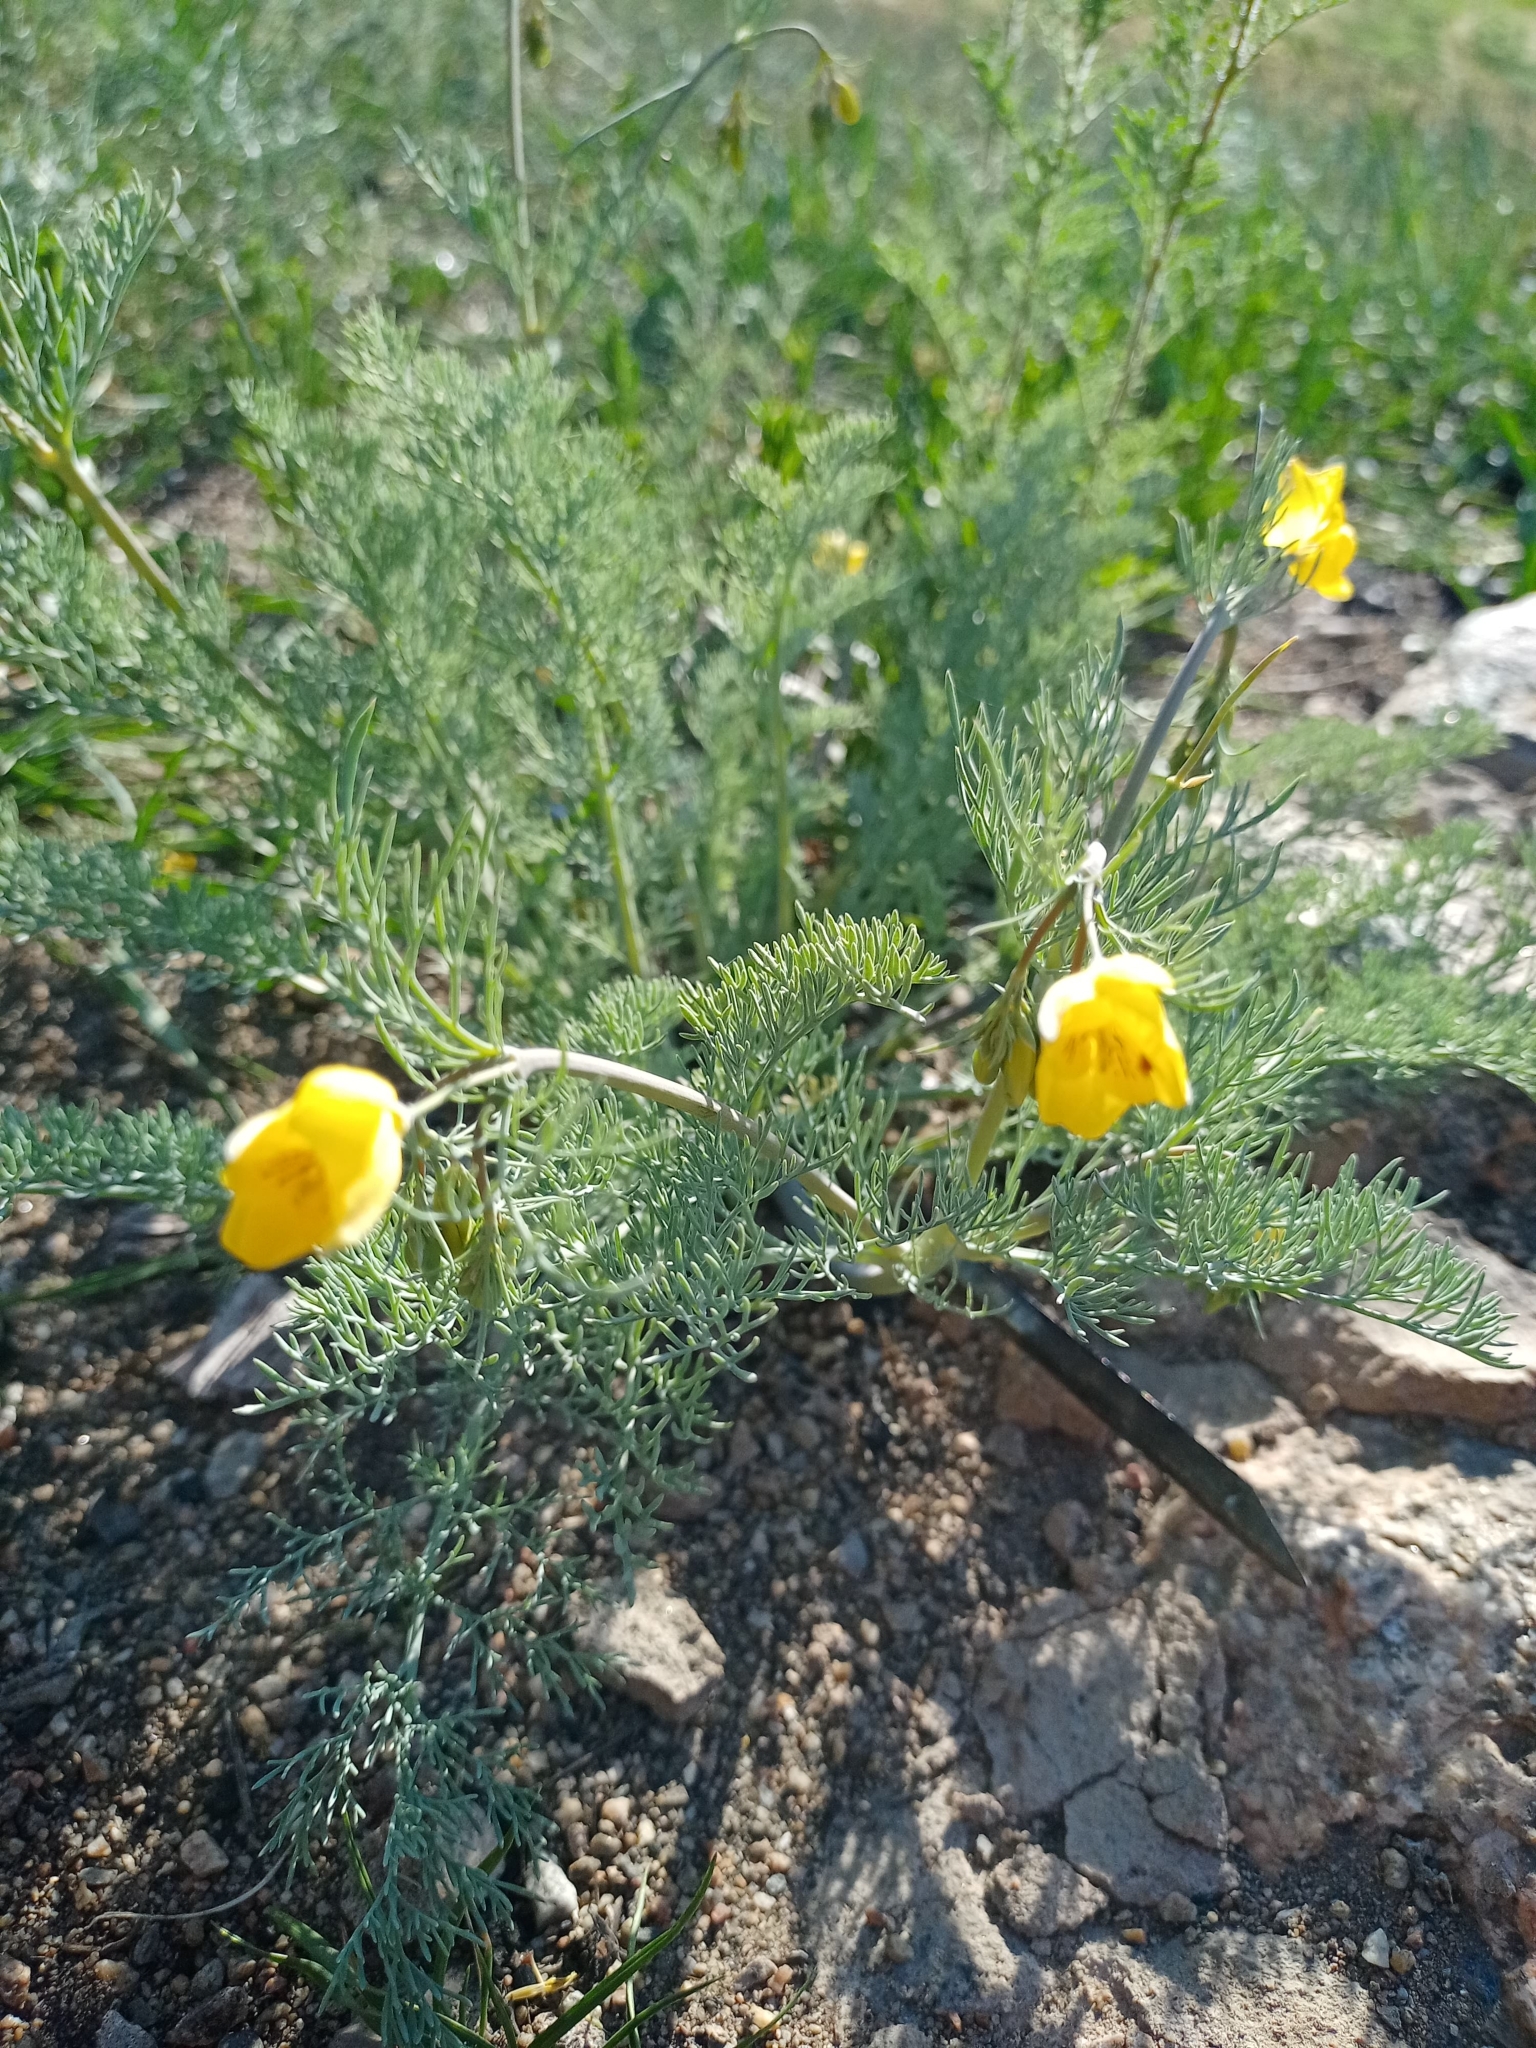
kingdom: Plantae
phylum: Tracheophyta
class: Magnoliopsida
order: Ranunculales
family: Papaveraceae
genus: Hypecoum
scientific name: Hypecoum erectum
